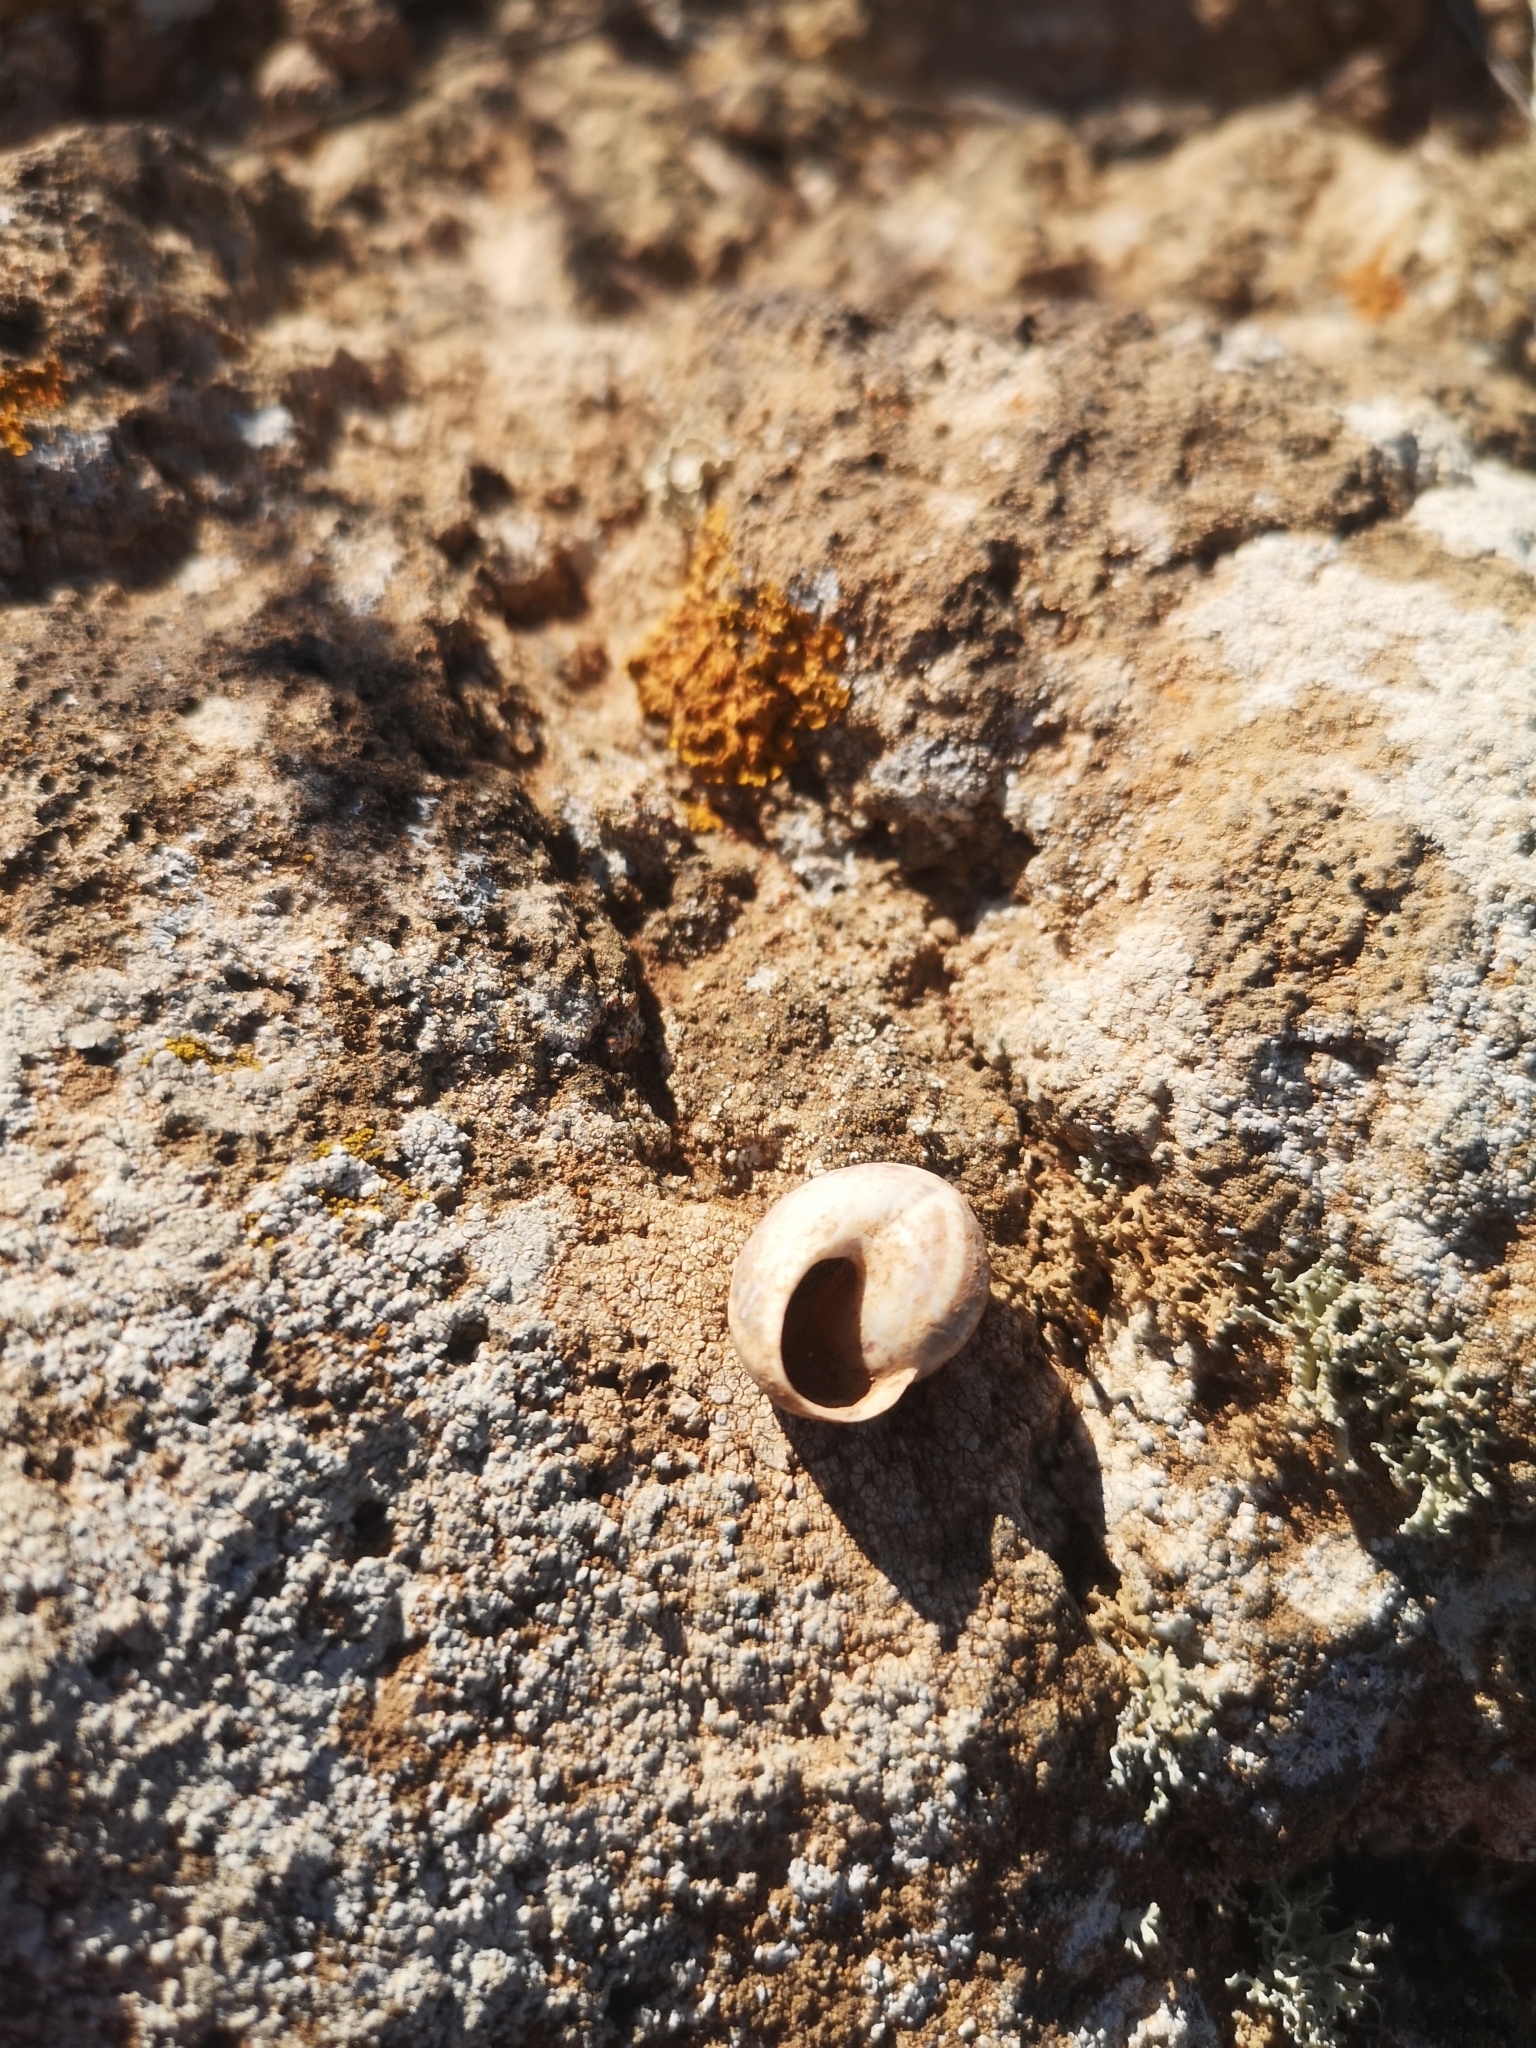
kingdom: Animalia
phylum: Mollusca
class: Gastropoda
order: Stylommatophora
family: Helicidae
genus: Theba
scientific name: Theba geminata
